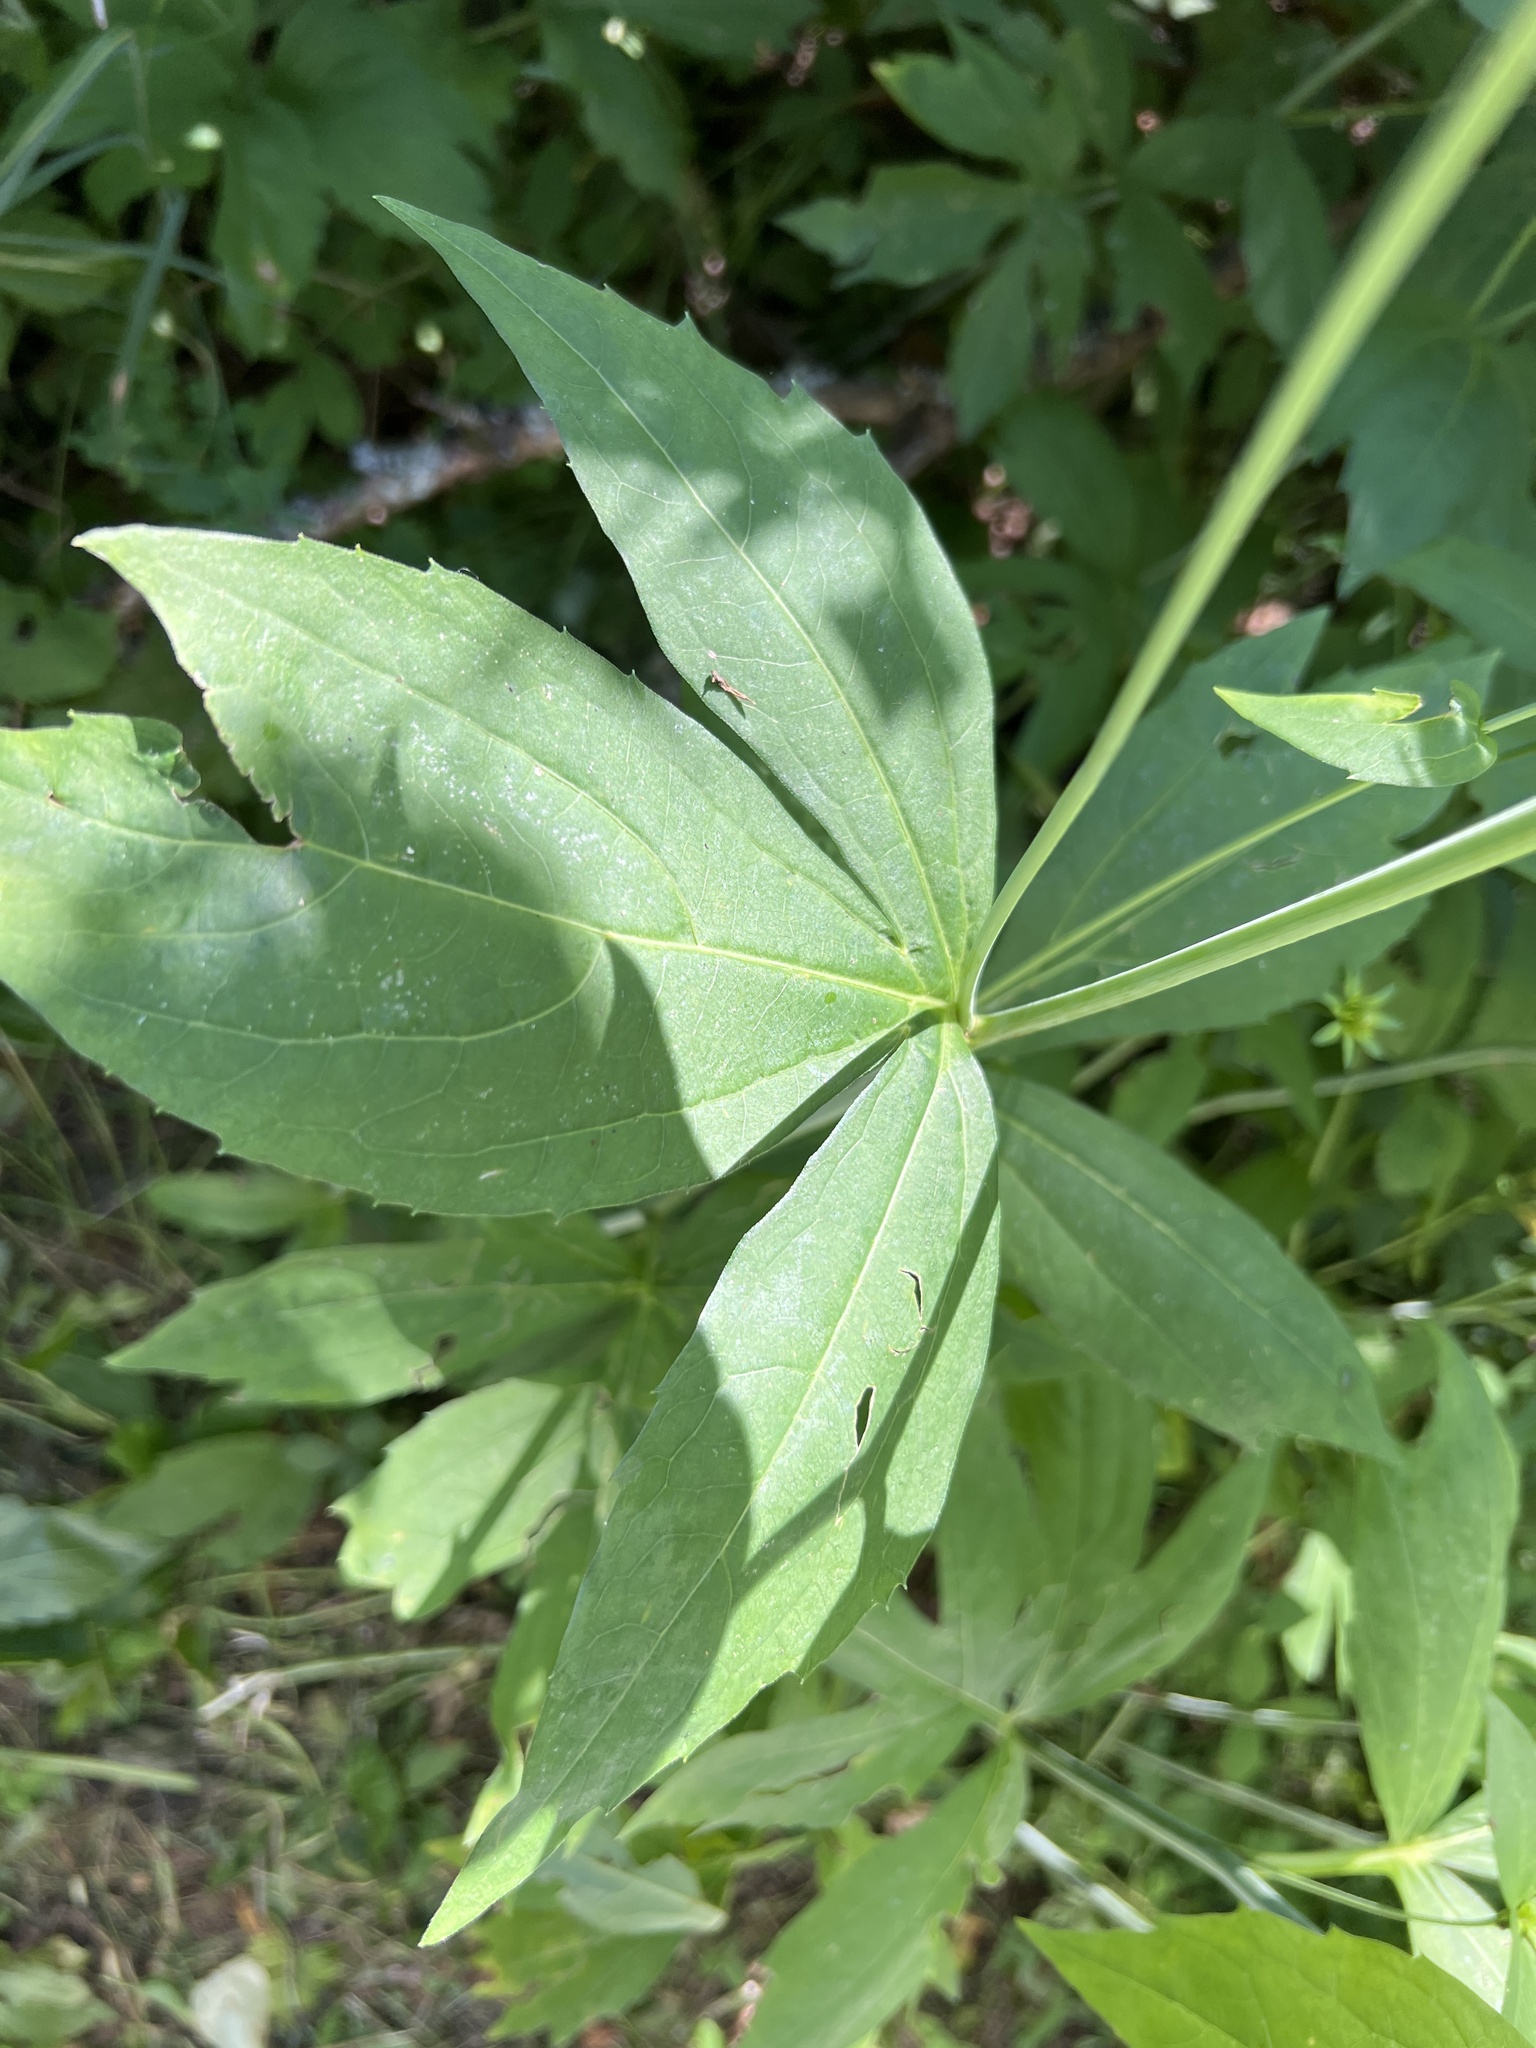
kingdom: Plantae
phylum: Tracheophyta
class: Magnoliopsida
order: Asterales
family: Asteraceae
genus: Rudbeckia
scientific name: Rudbeckia laciniata
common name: Coneflower
